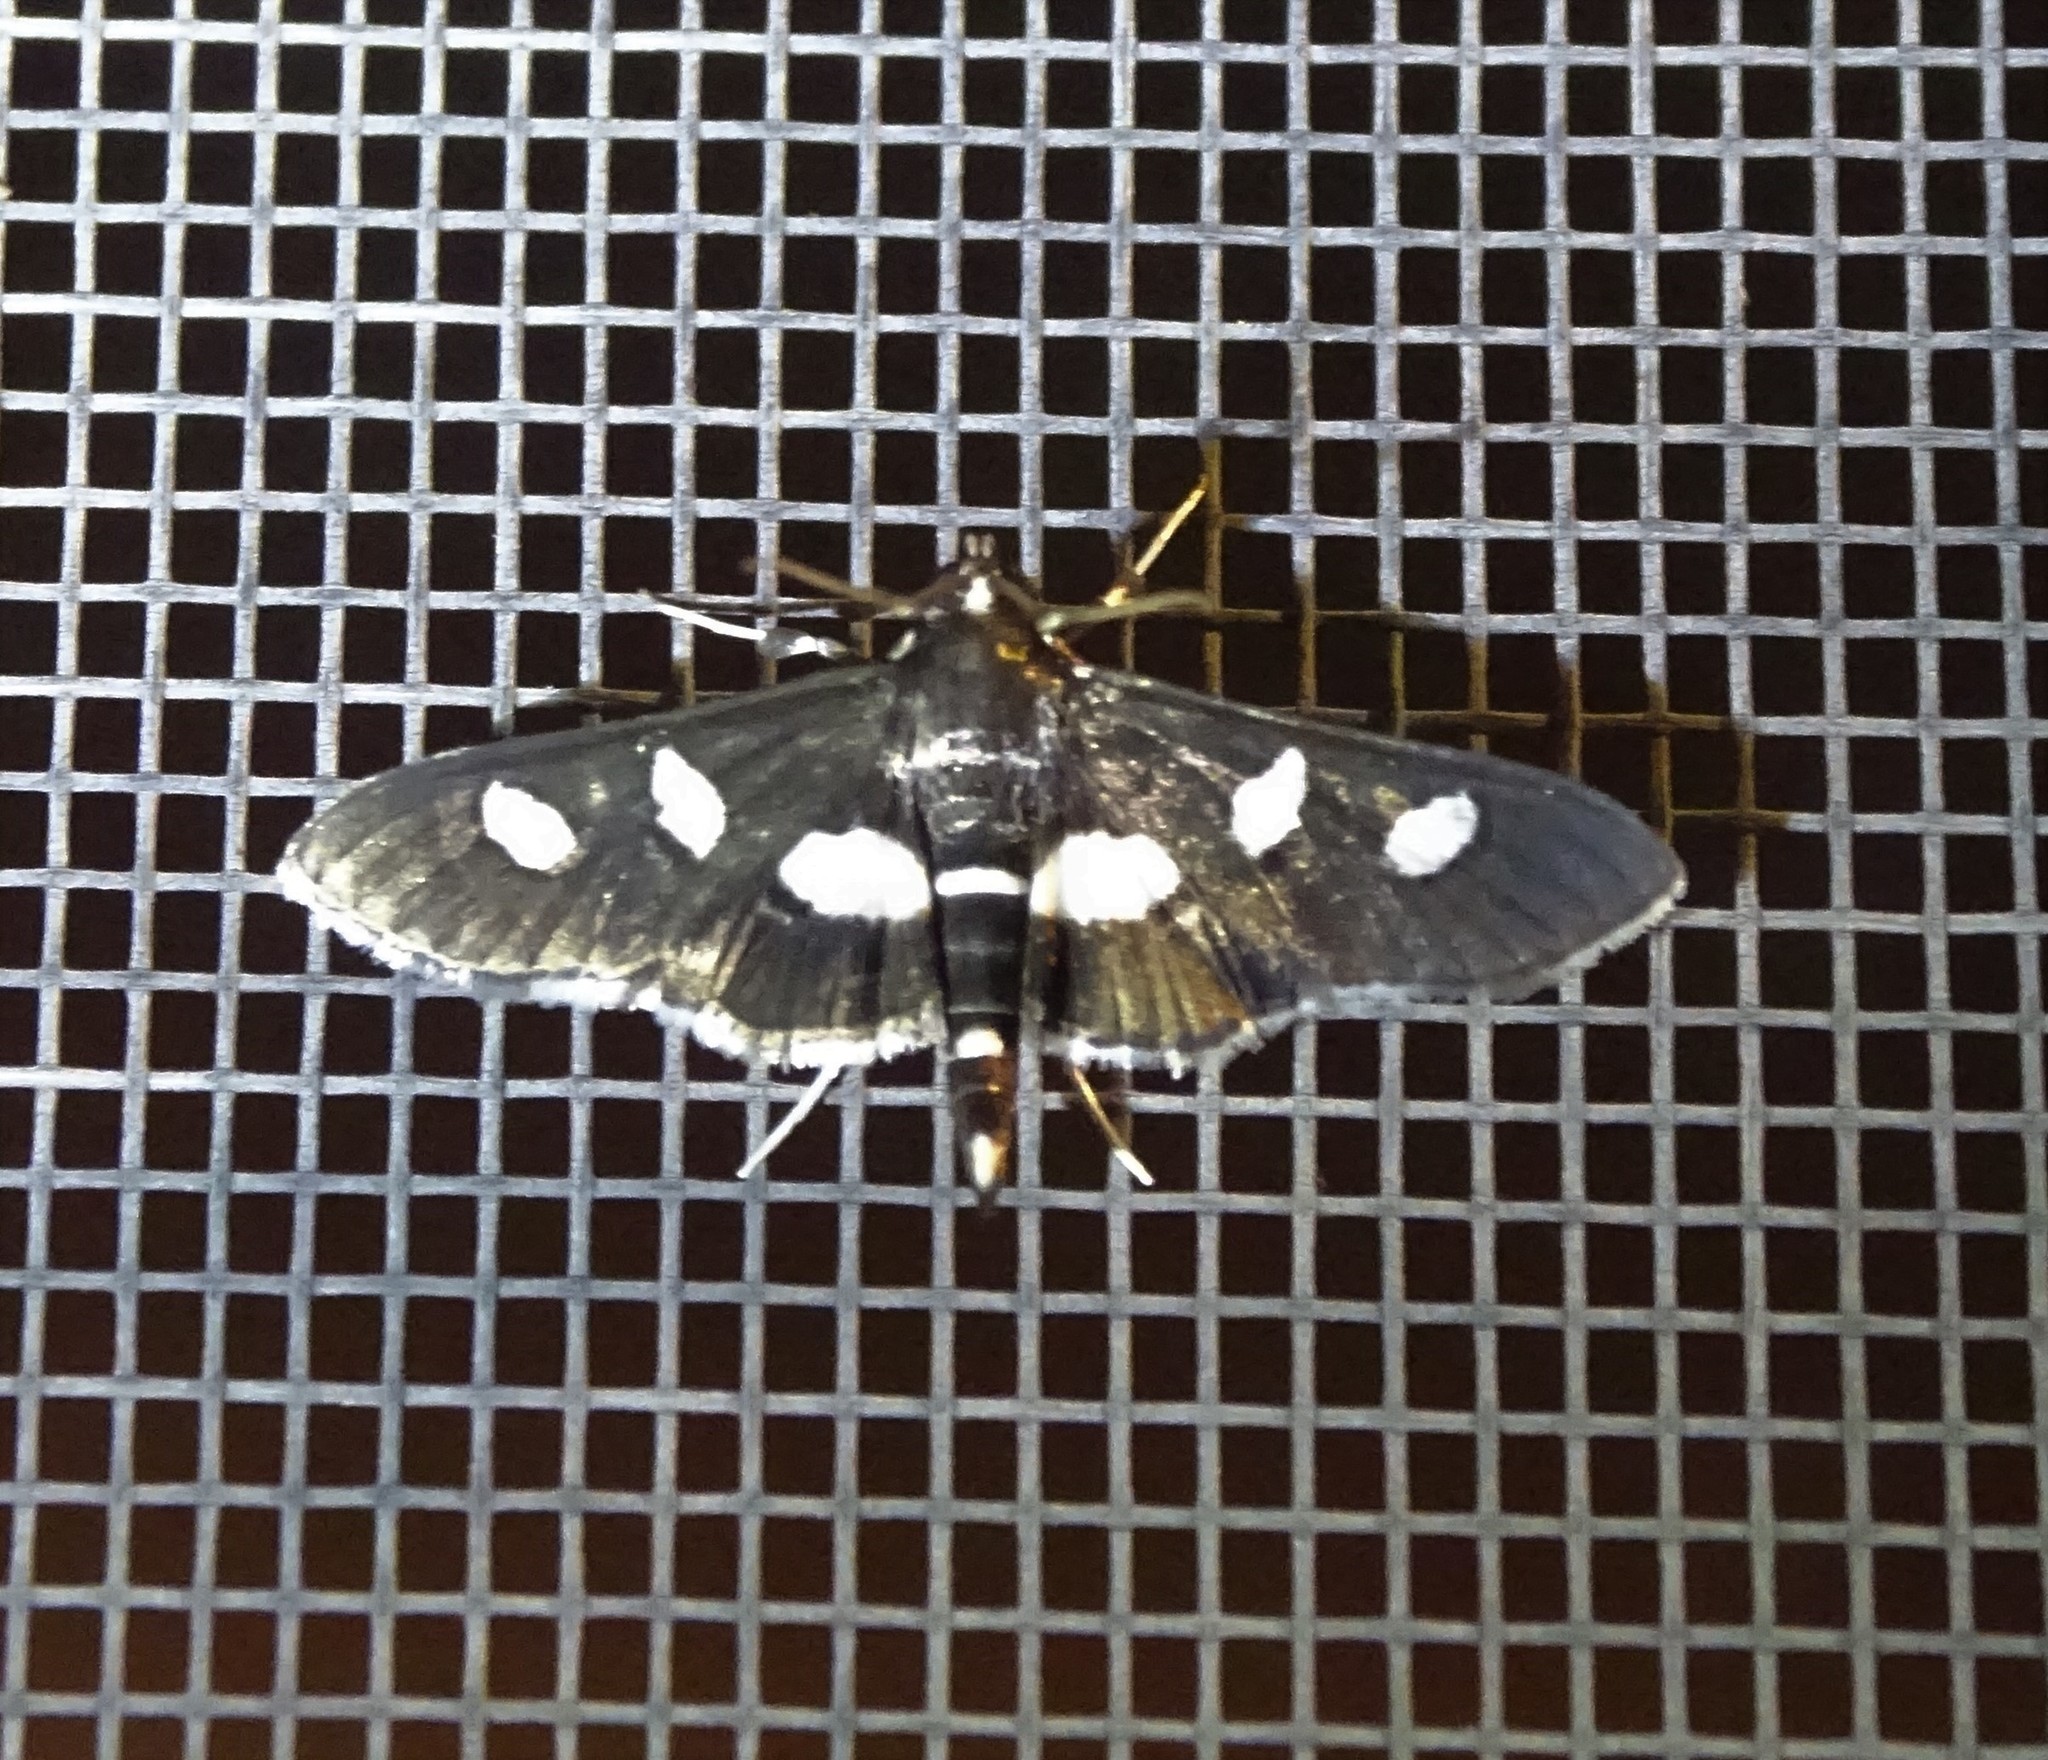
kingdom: Animalia
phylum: Arthropoda
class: Insecta
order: Lepidoptera
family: Crambidae
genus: Desmia
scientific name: Desmia
